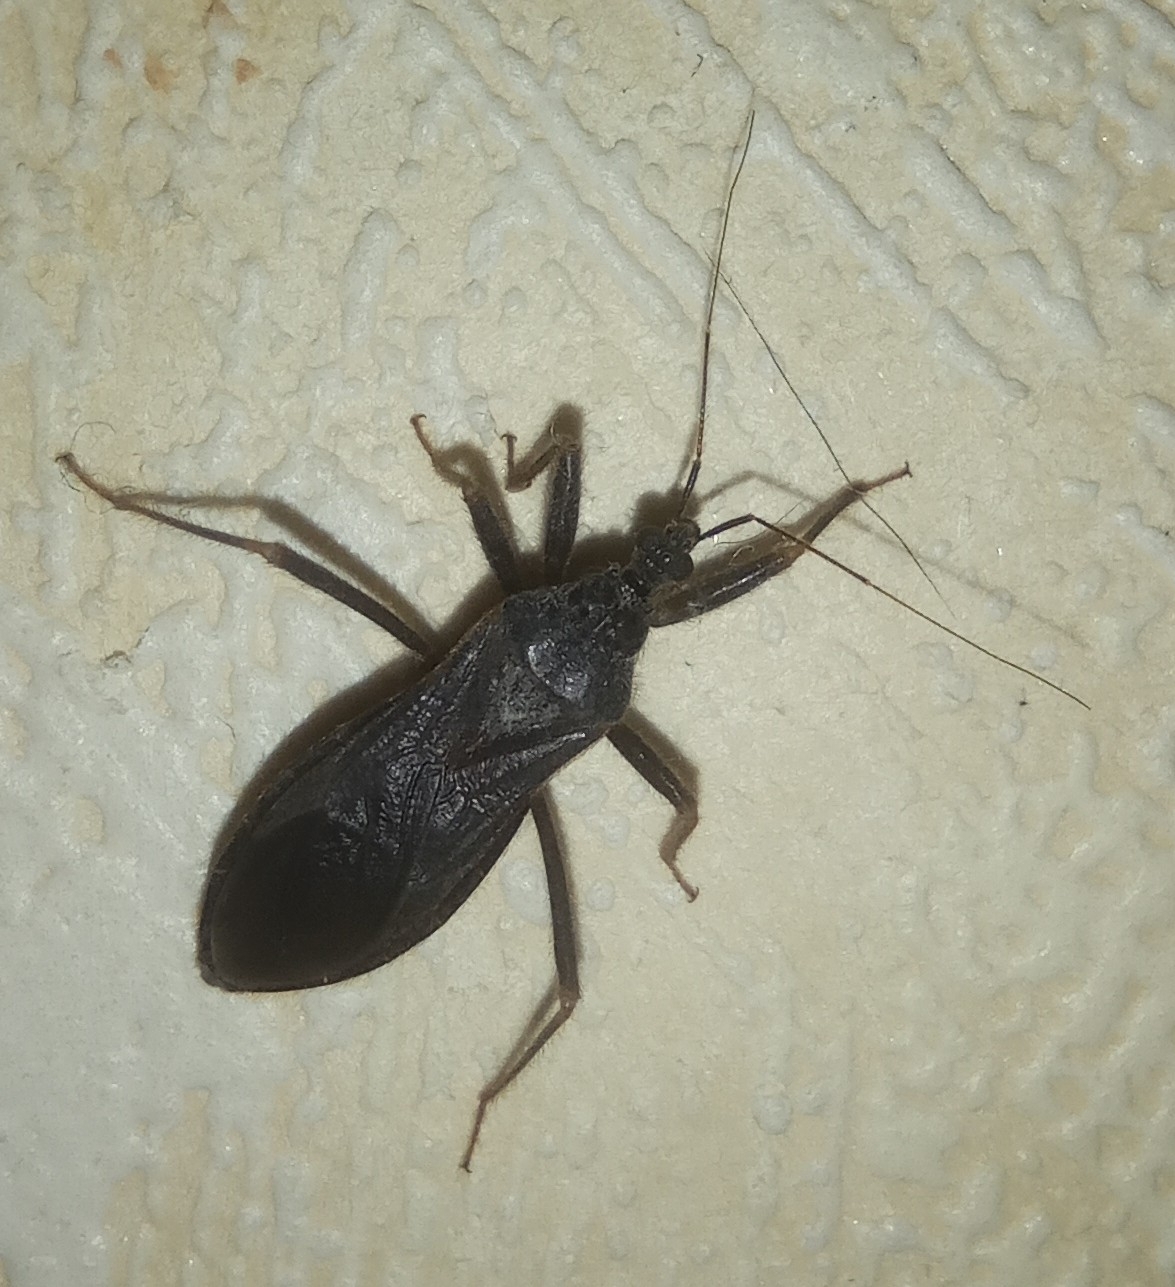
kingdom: Animalia
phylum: Arthropoda
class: Insecta
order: Hemiptera
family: Reduviidae
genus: Reduvius
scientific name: Reduvius personatus
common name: Masked hunter
